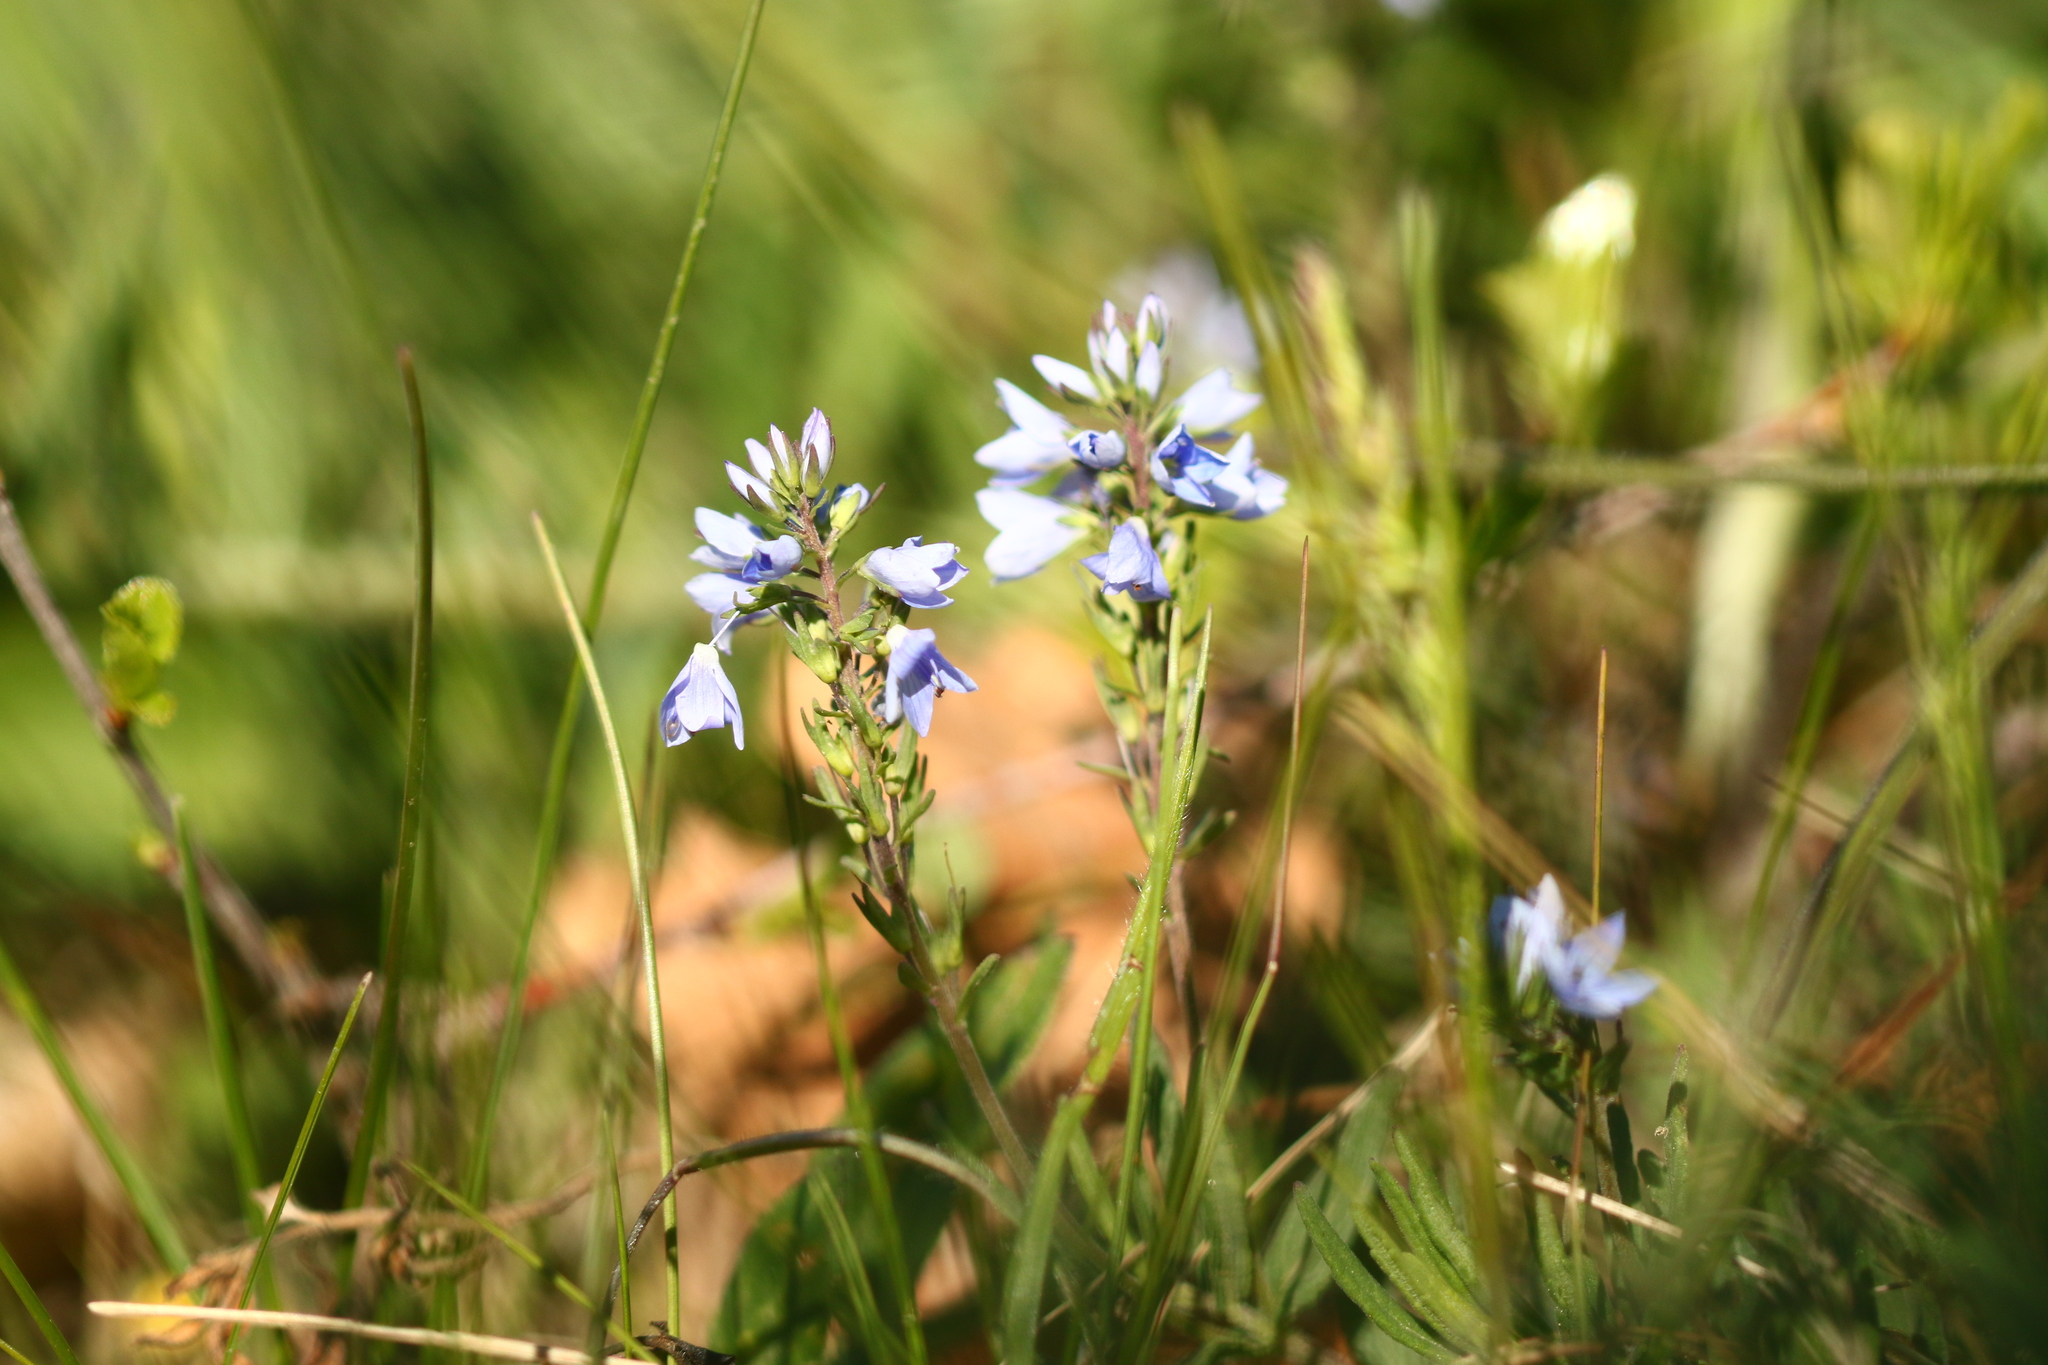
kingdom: Plantae
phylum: Tracheophyta
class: Magnoliopsida
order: Lamiales
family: Plantaginaceae
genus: Veronica
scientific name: Veronica prostrata
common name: Prostrate speedwell
